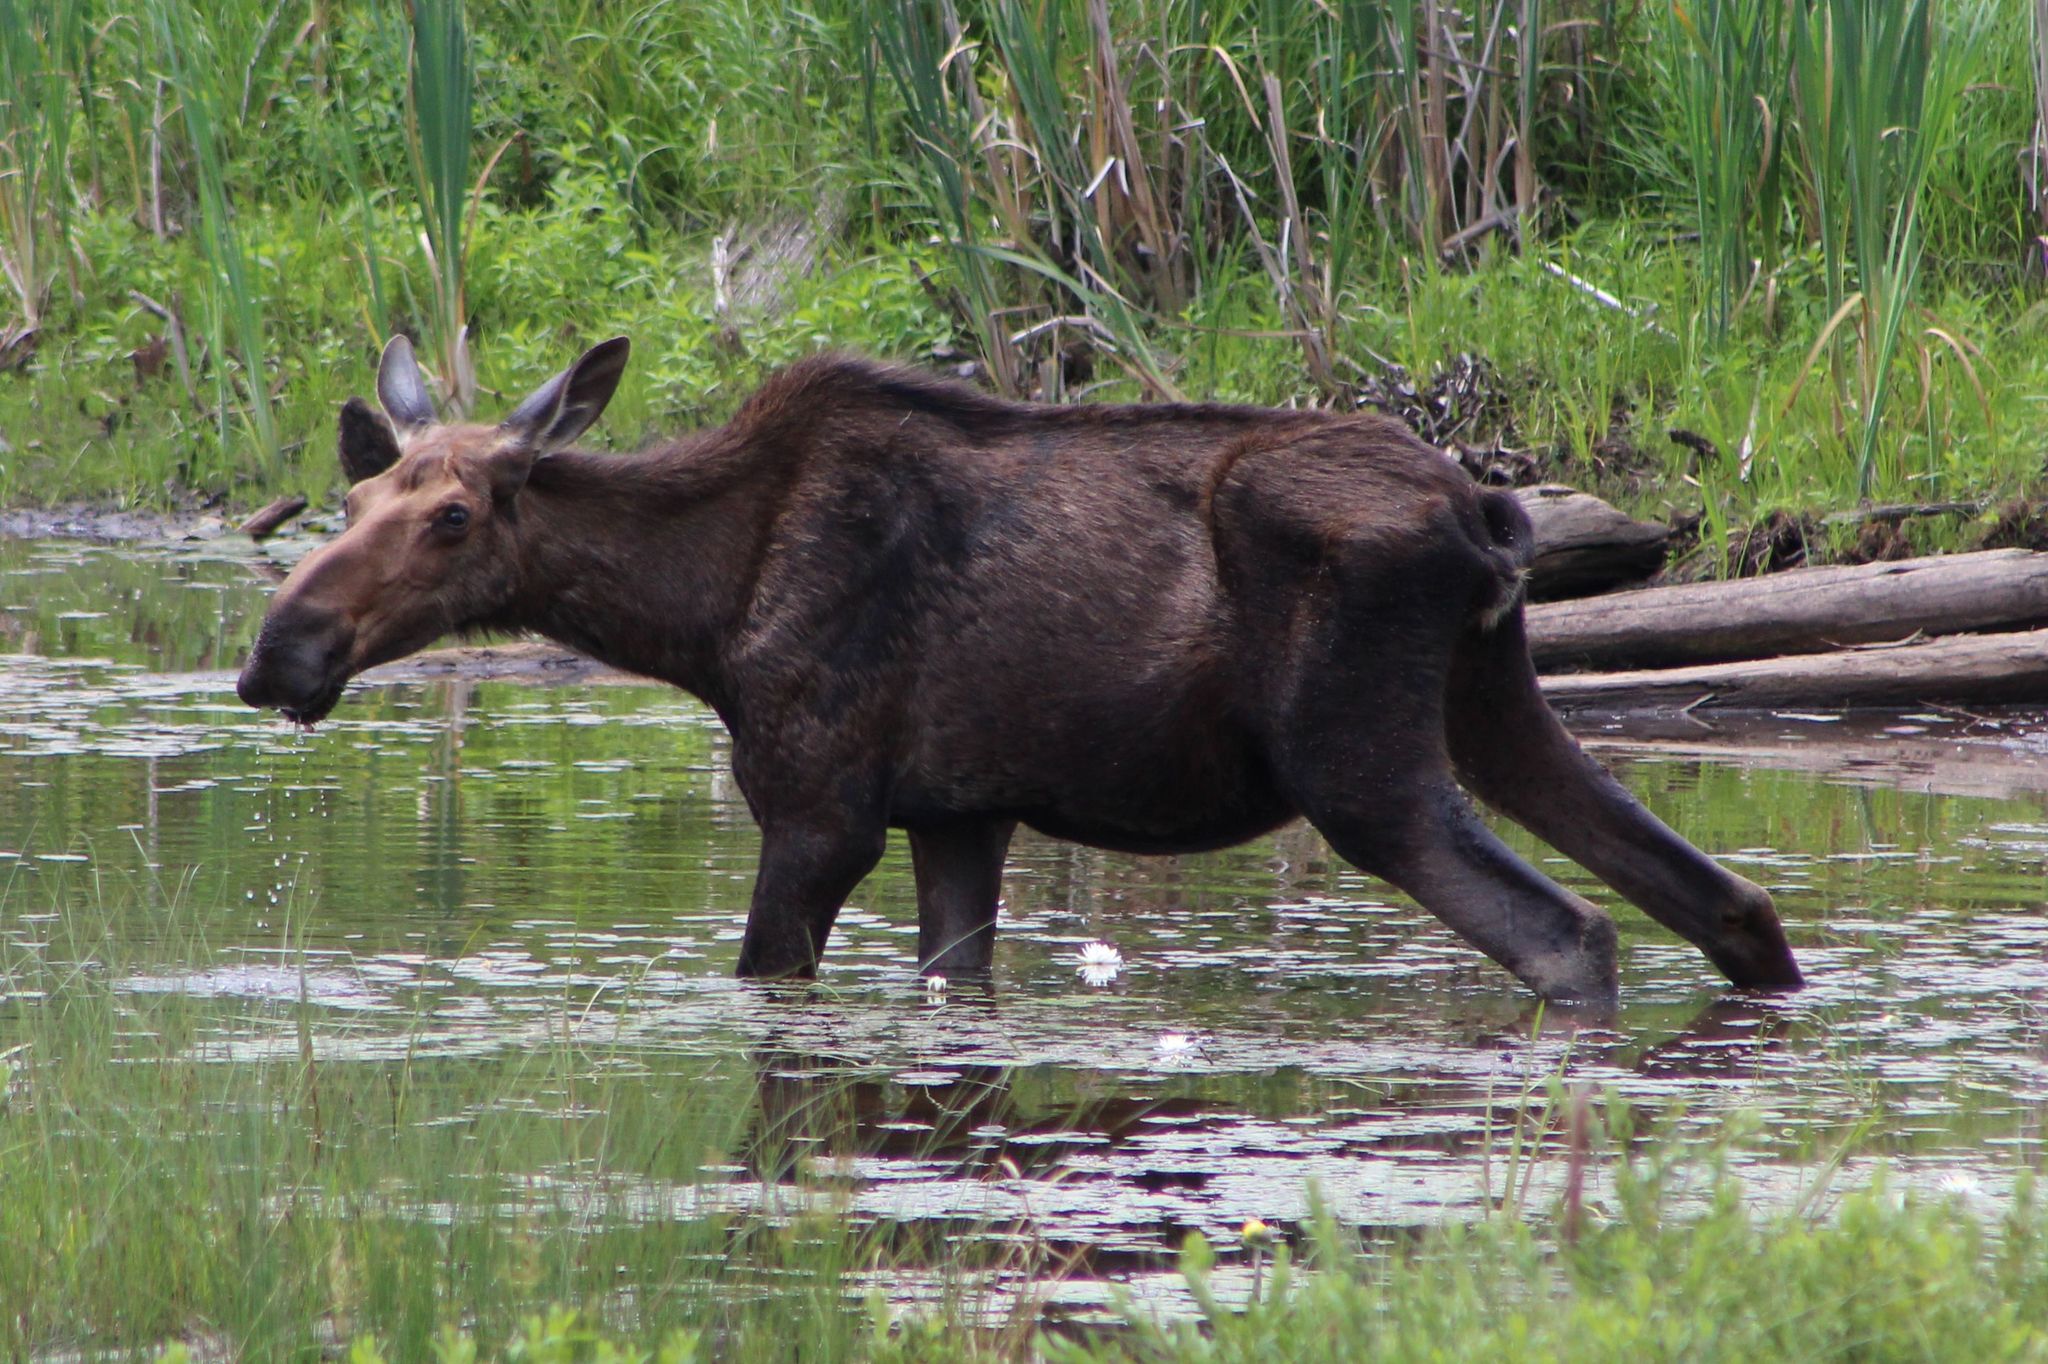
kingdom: Animalia
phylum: Chordata
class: Mammalia
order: Artiodactyla
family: Cervidae
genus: Alces
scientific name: Alces alces
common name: Moose
